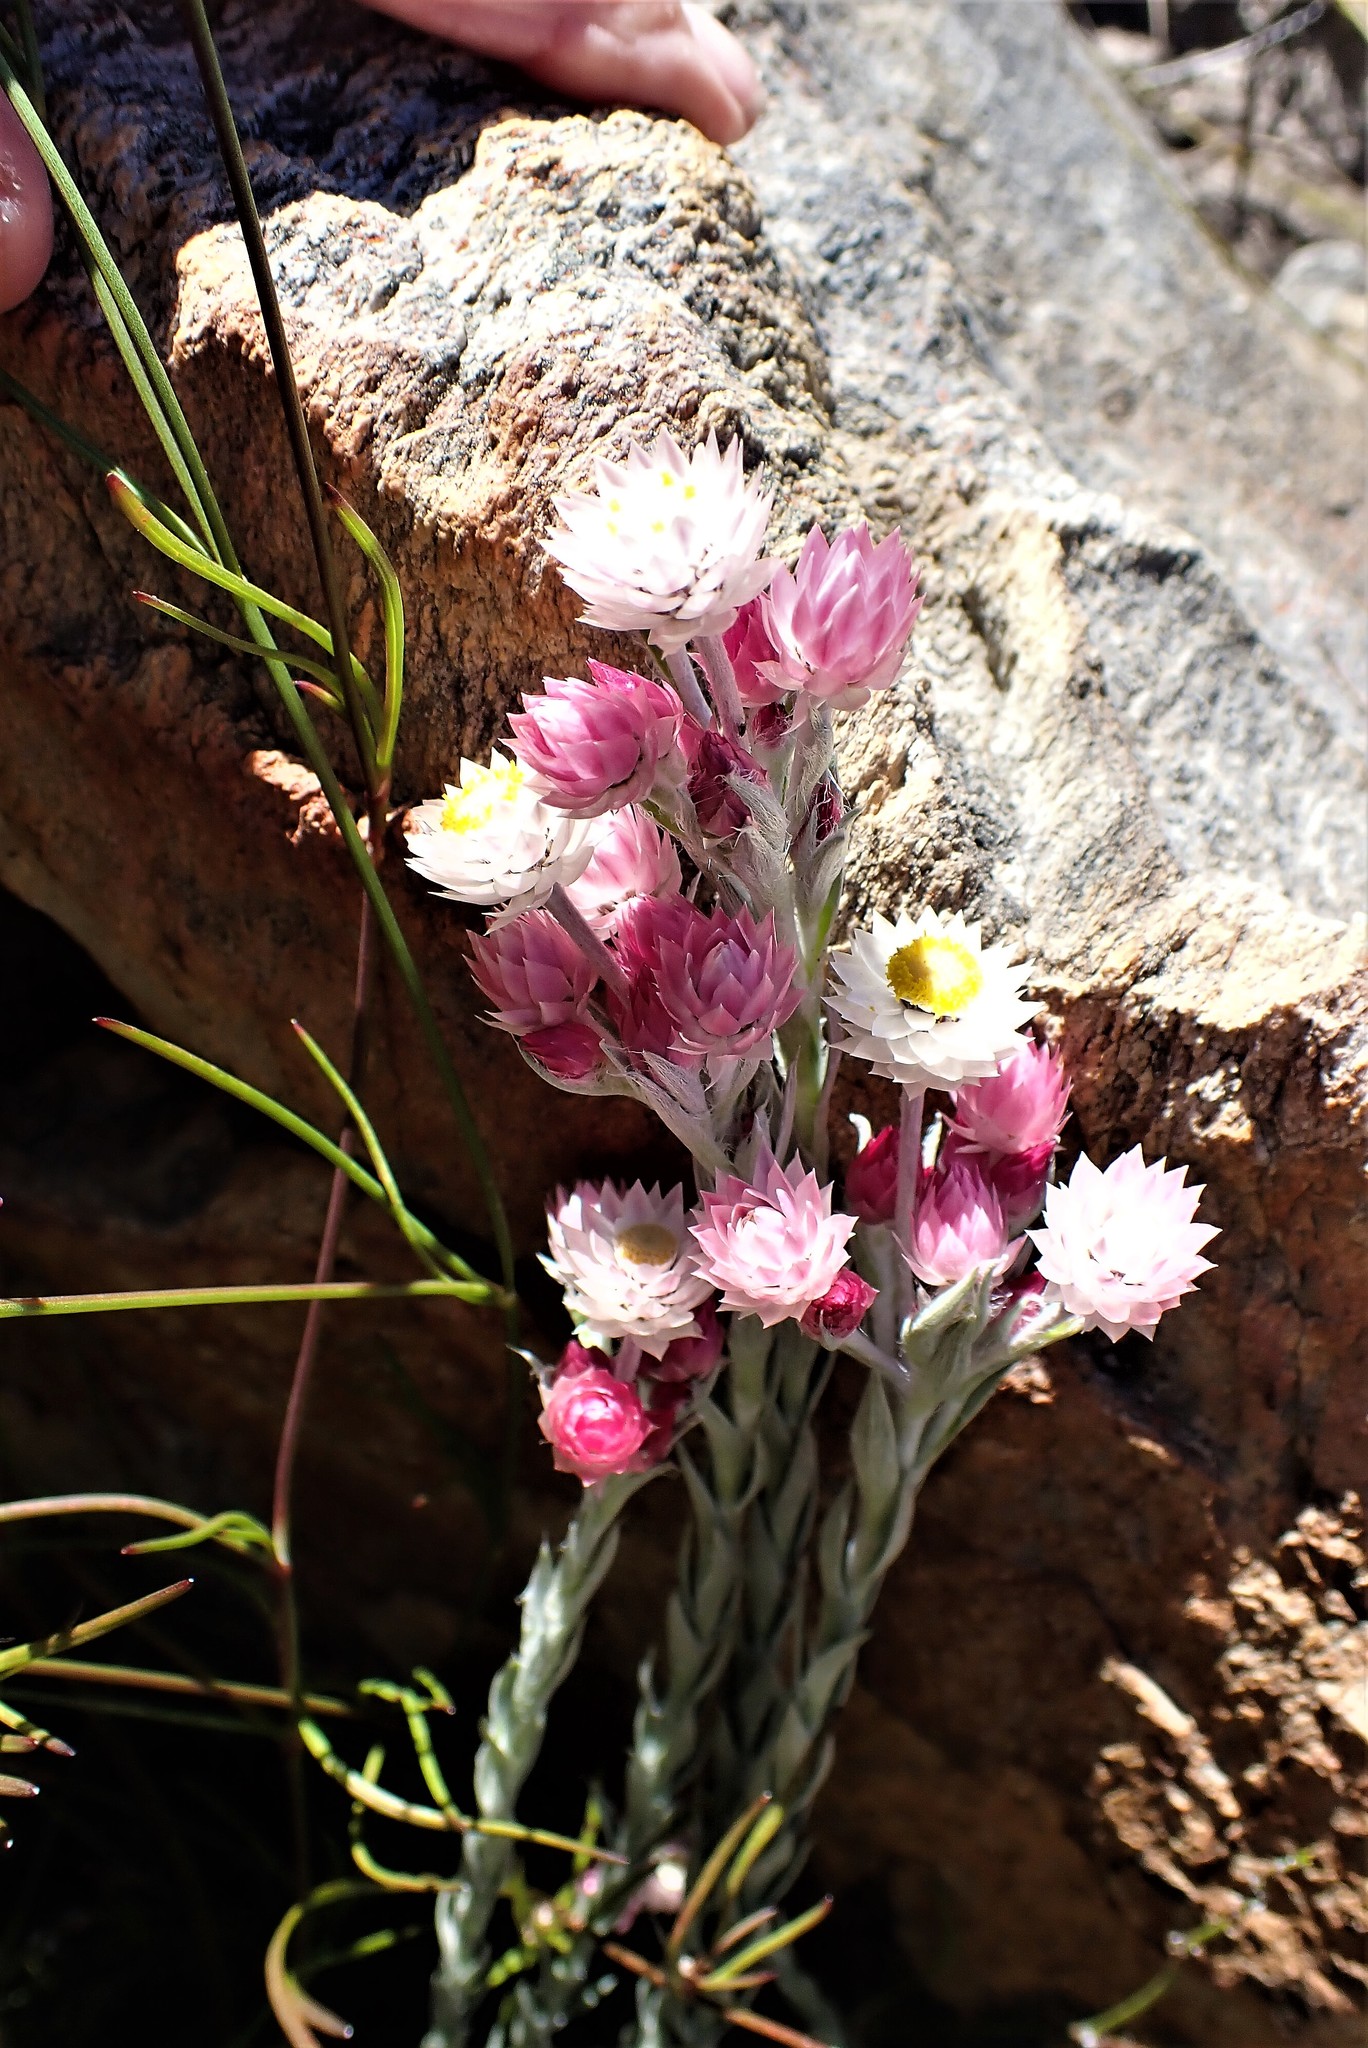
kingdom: Plantae
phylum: Tracheophyta
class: Magnoliopsida
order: Asterales
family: Asteraceae
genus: Achyranthemum
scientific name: Achyranthemum paniculatum
